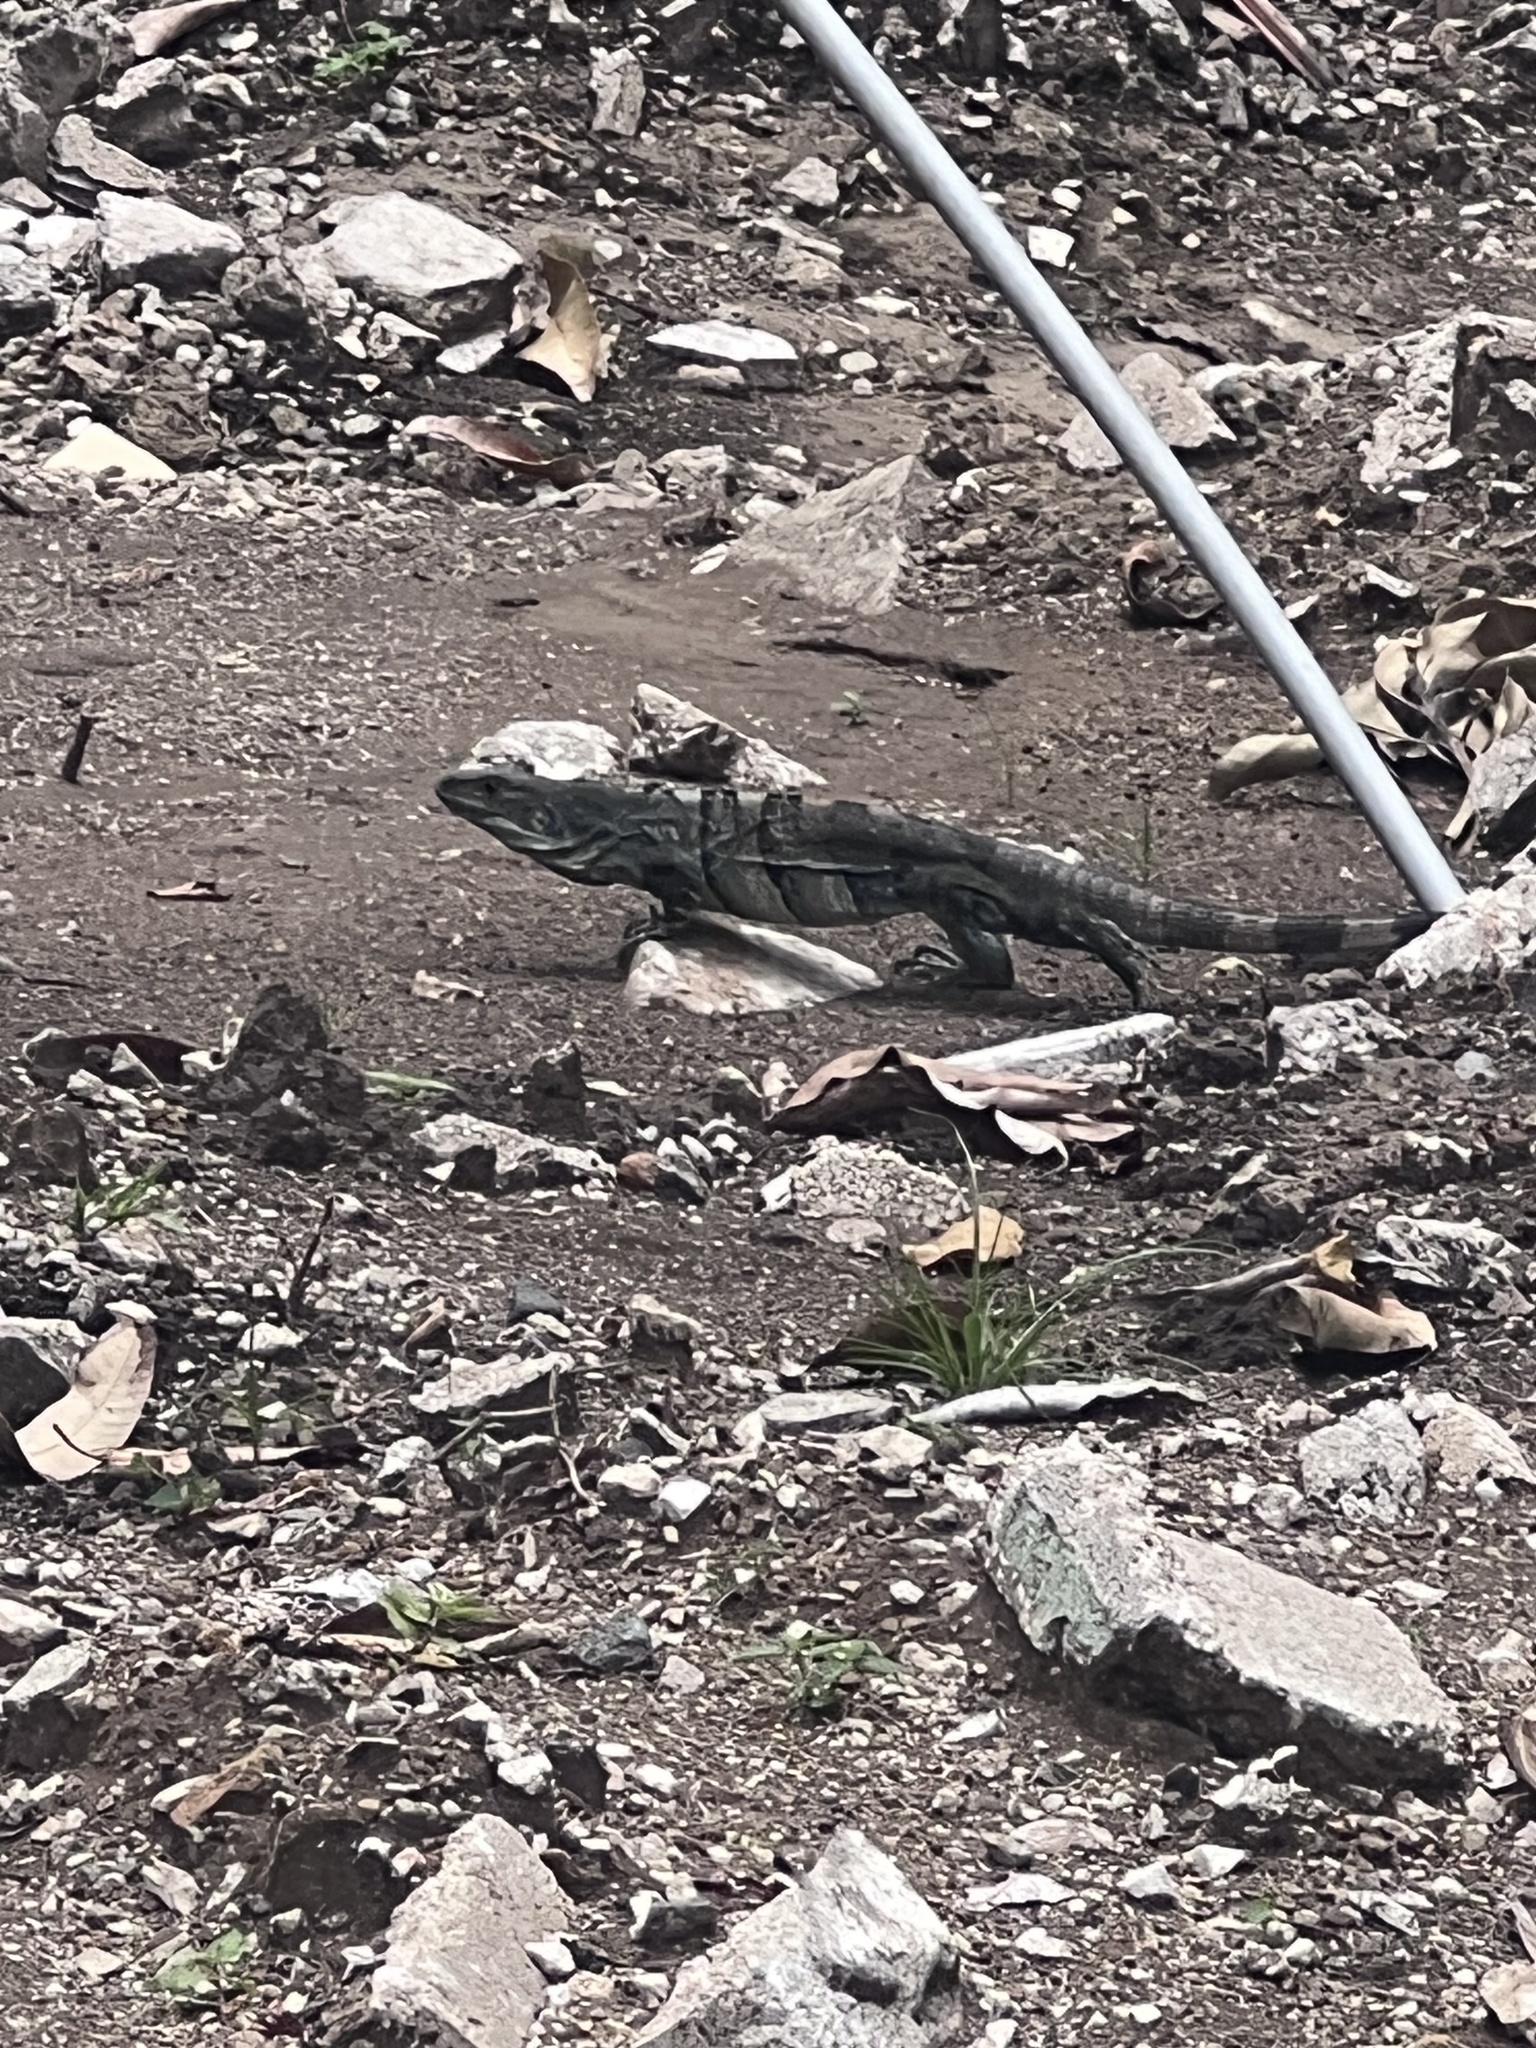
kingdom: Animalia
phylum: Chordata
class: Squamata
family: Iguanidae
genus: Ctenosaura
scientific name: Ctenosaura similis
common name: Black spiny-tailed iguana
